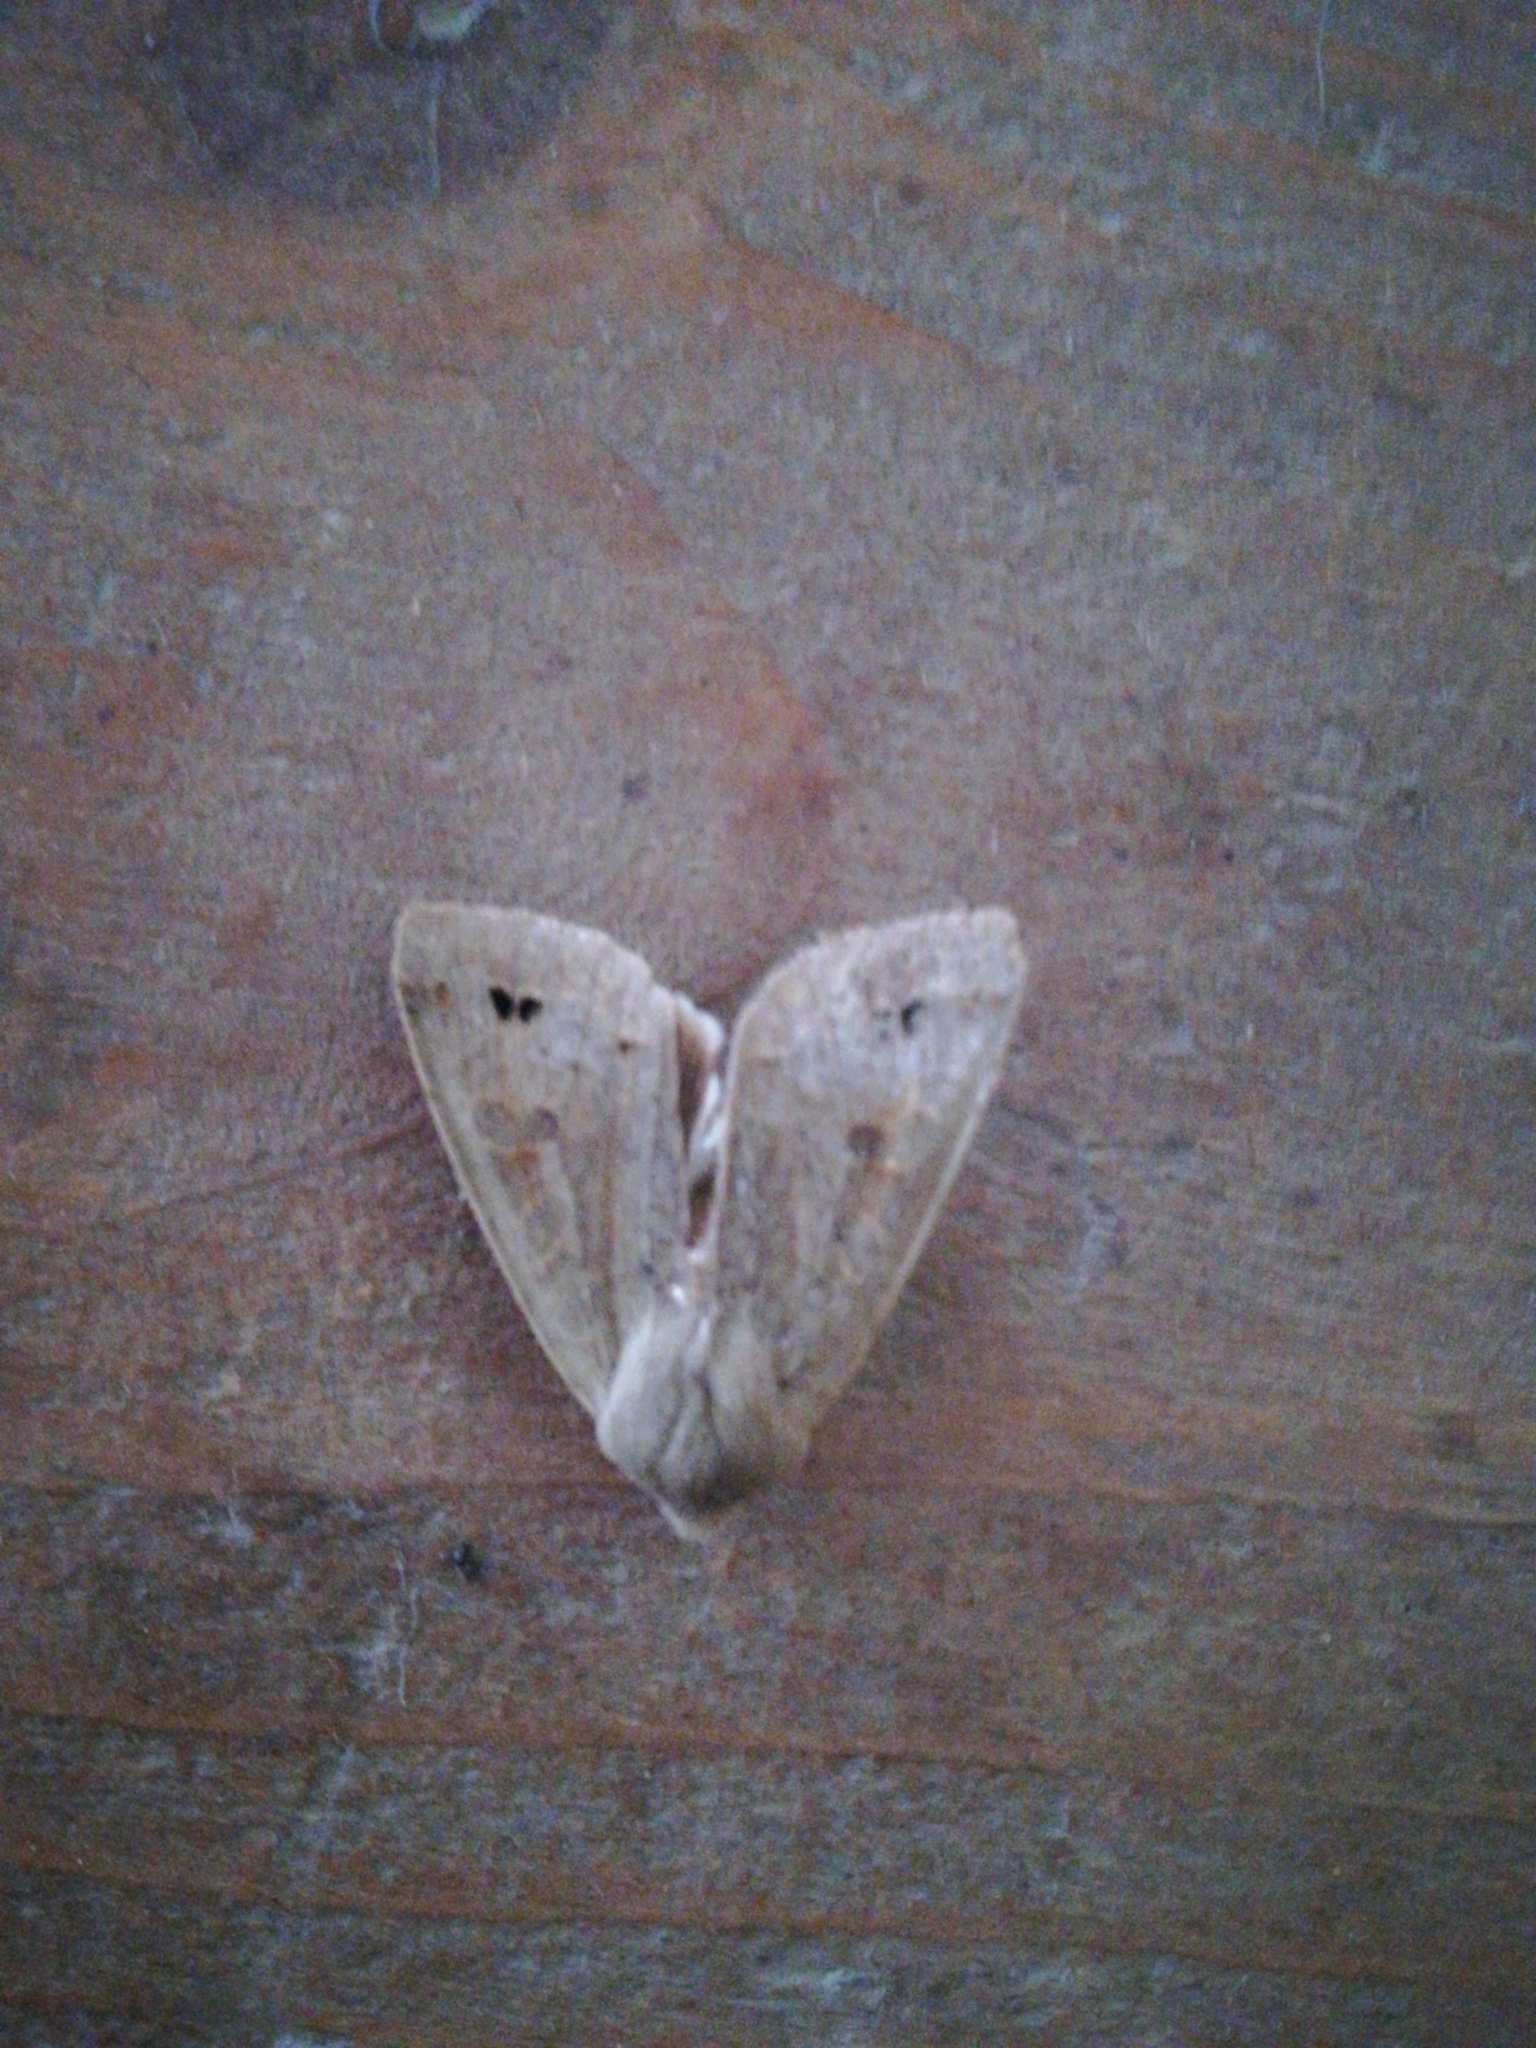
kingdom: Animalia
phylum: Arthropoda
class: Insecta
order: Lepidoptera
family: Noctuidae
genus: Anorthoa
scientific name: Anorthoa munda
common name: Twin-spotted quaker
